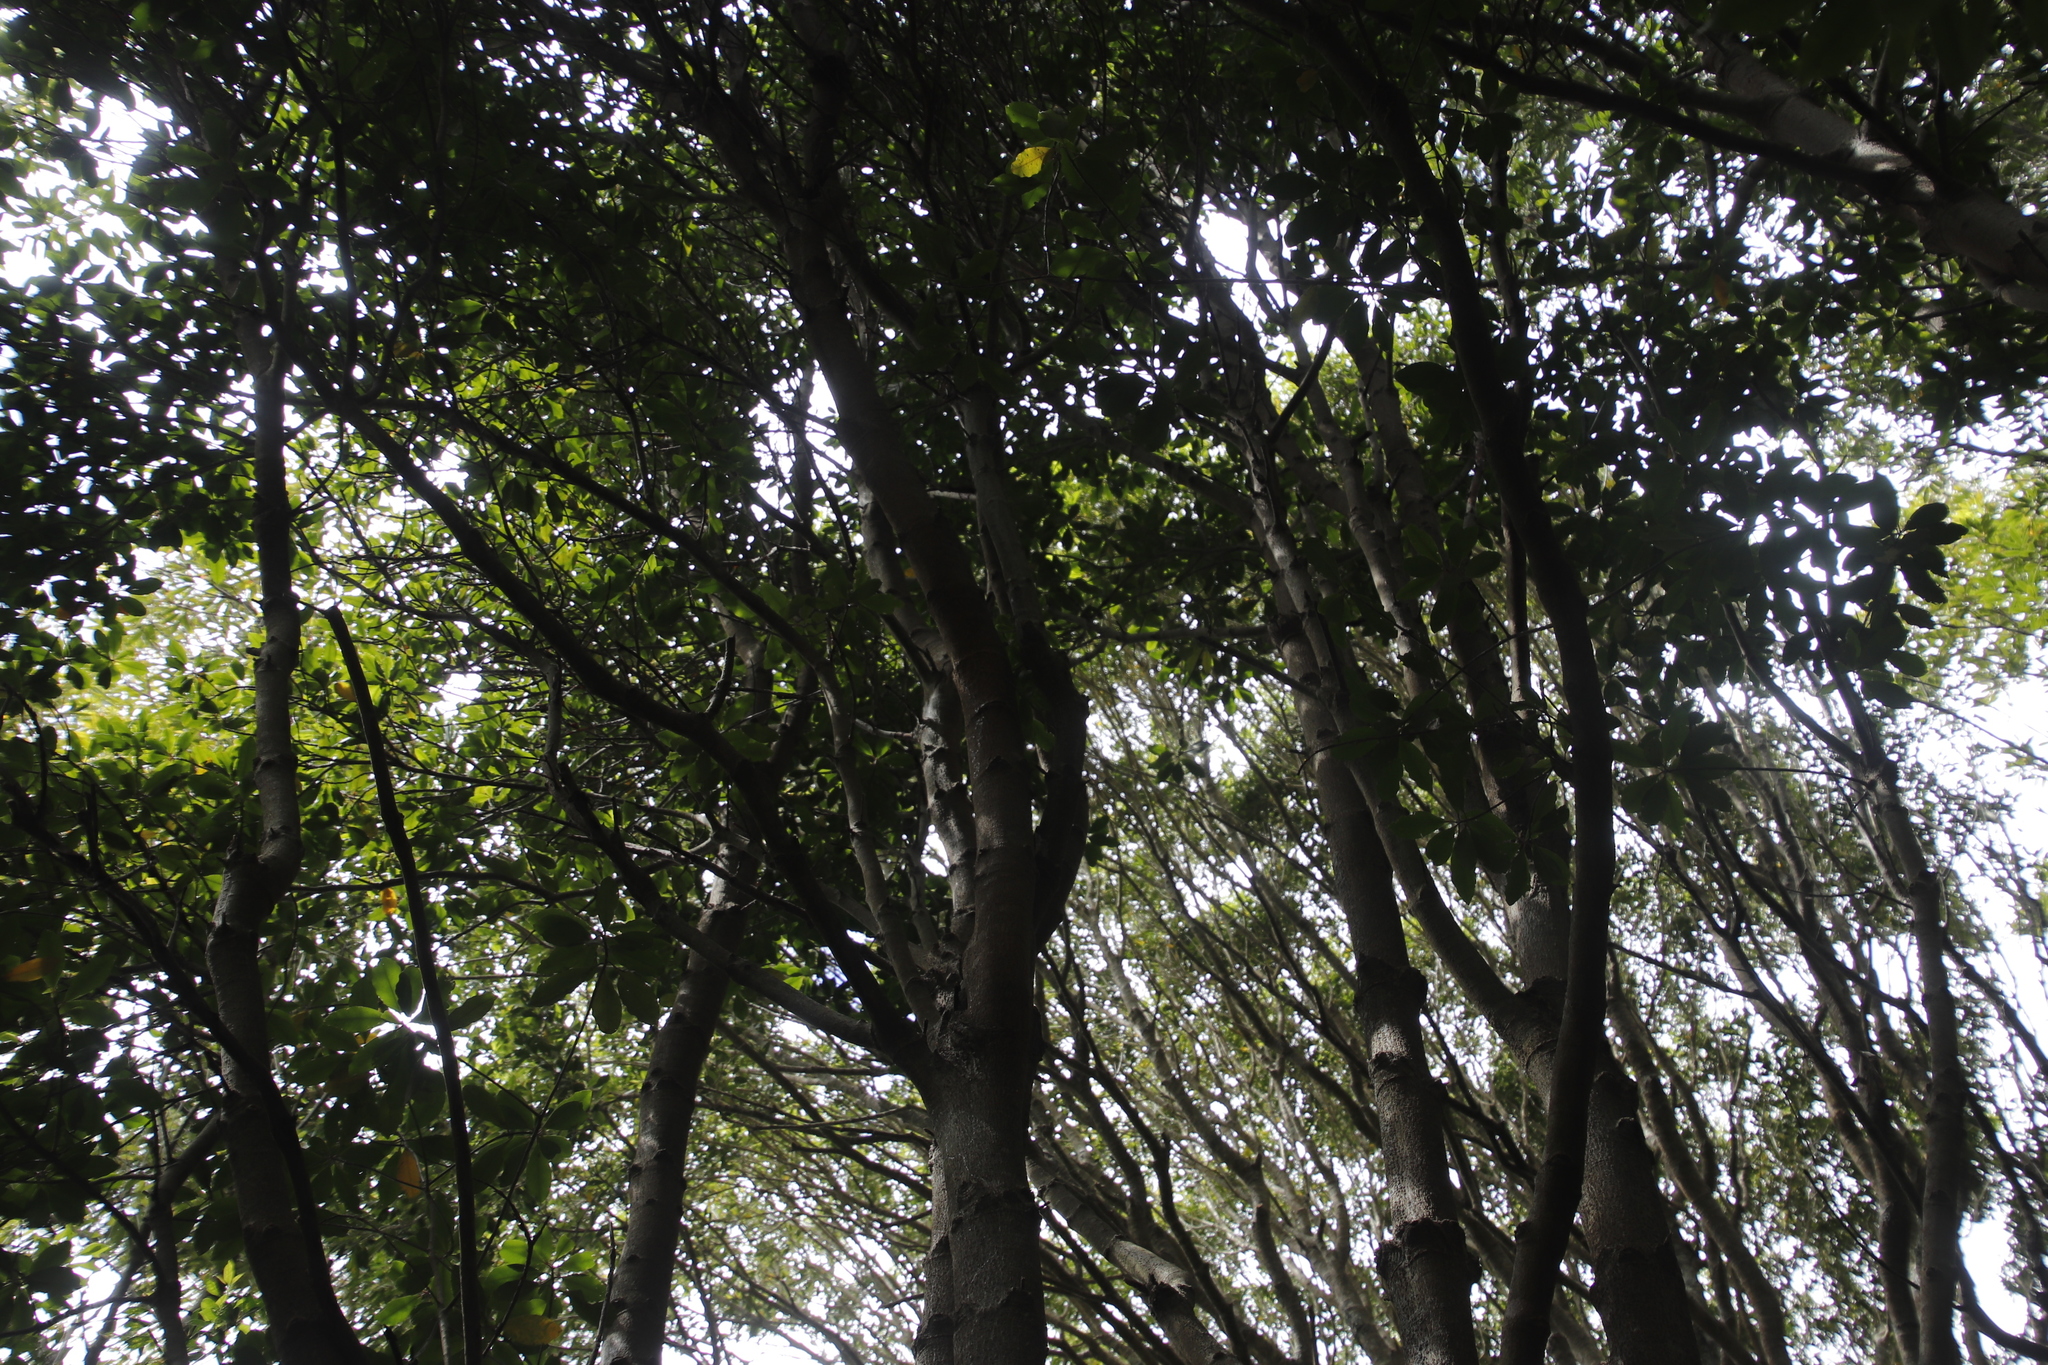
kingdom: Plantae
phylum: Tracheophyta
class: Magnoliopsida
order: Ericales
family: Primulaceae
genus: Myrsine
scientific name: Myrsine melanophloeos
